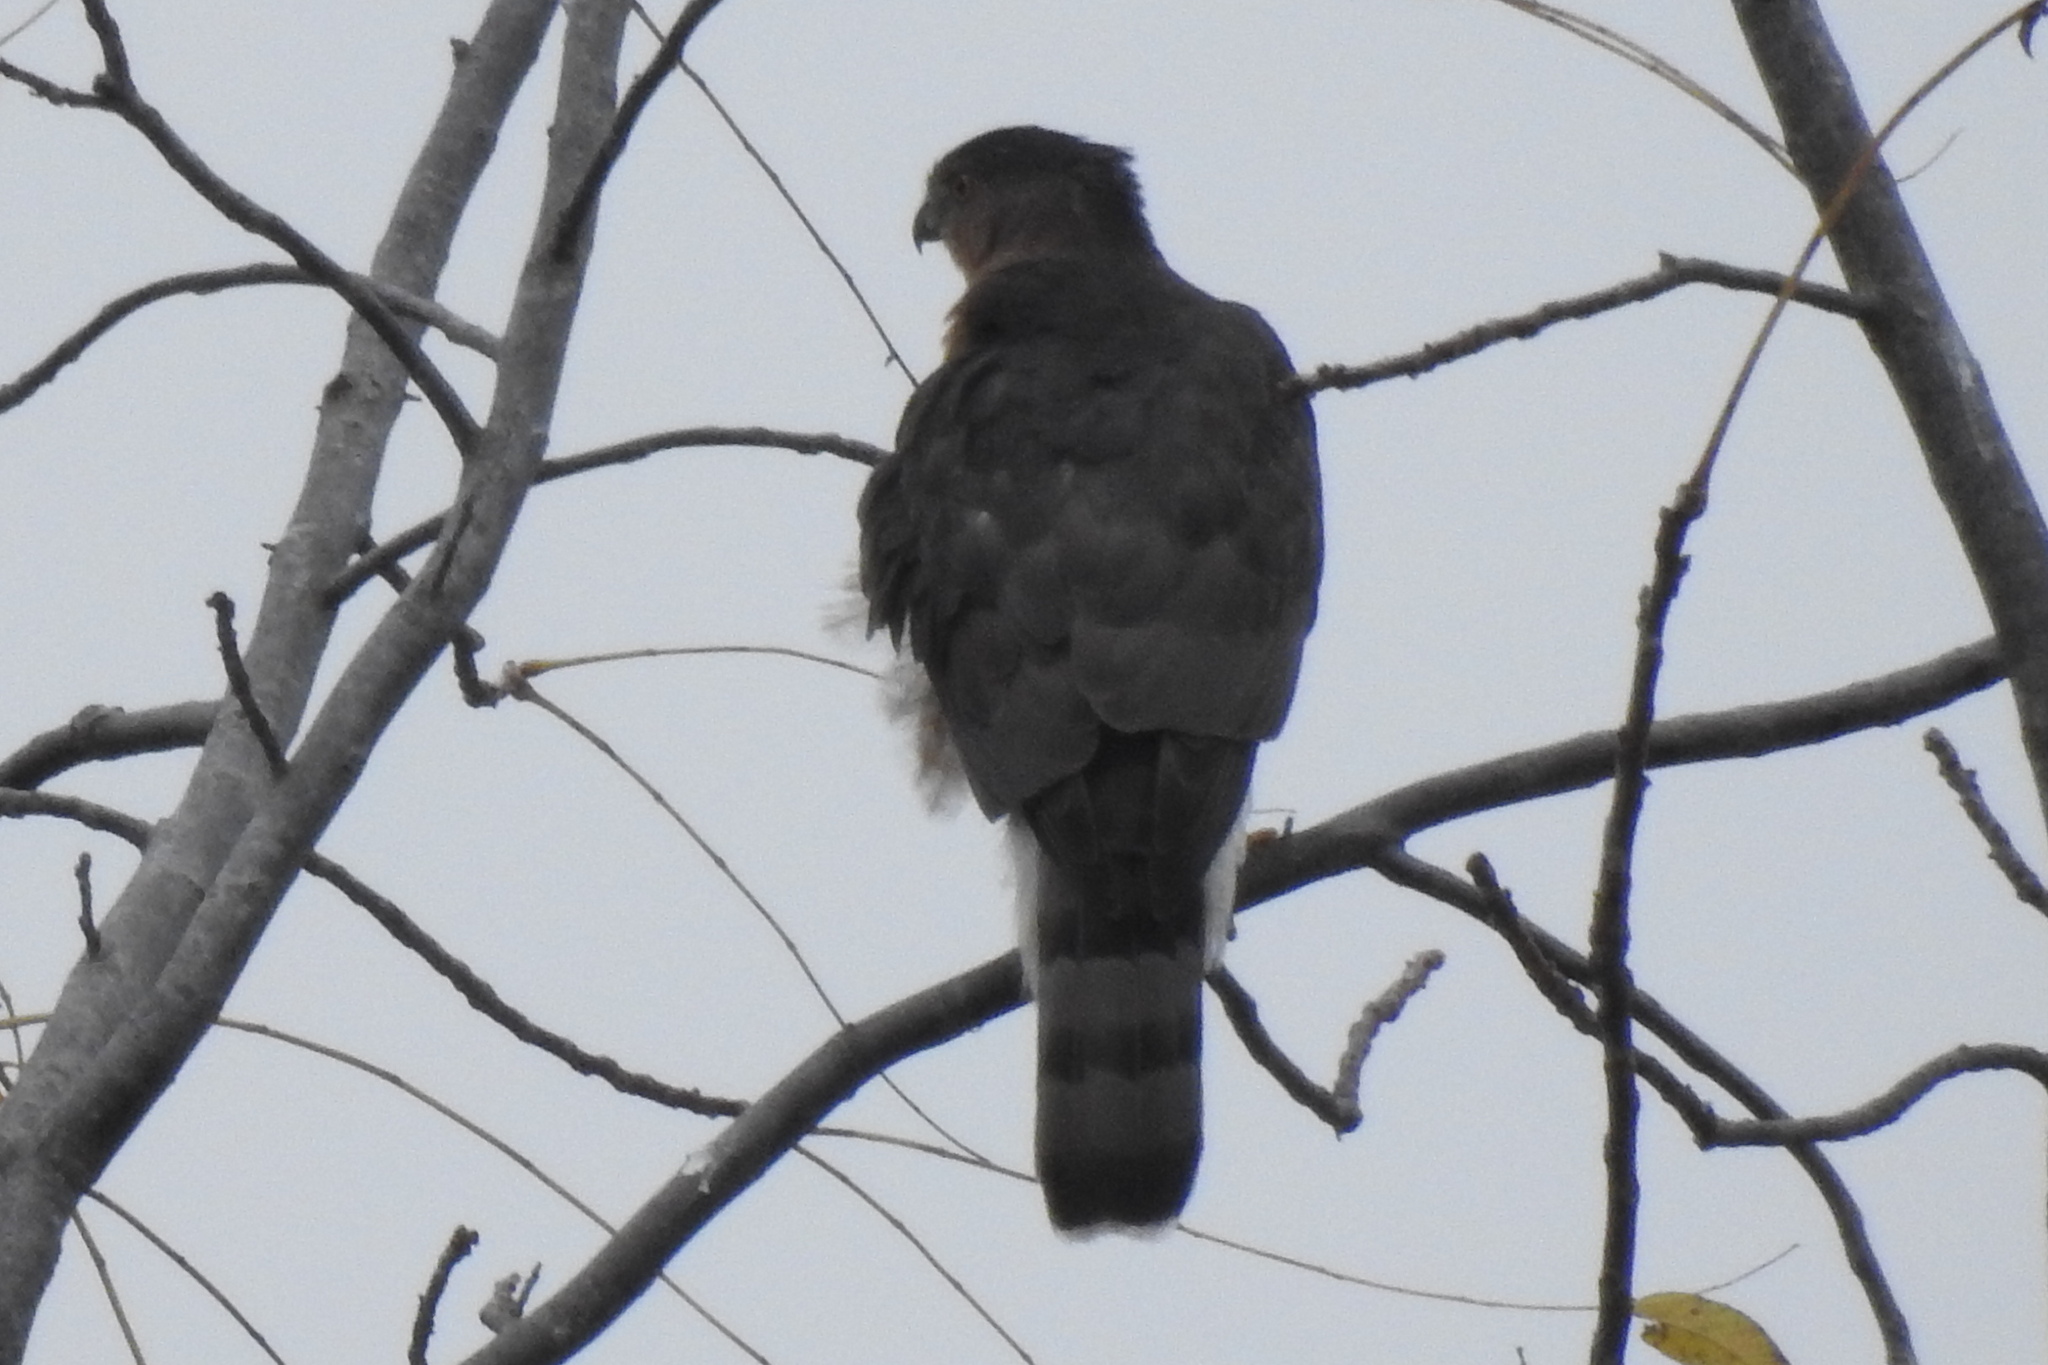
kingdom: Animalia
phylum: Chordata
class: Aves
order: Accipitriformes
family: Accipitridae
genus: Accipiter
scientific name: Accipiter cooperii
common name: Cooper's hawk
